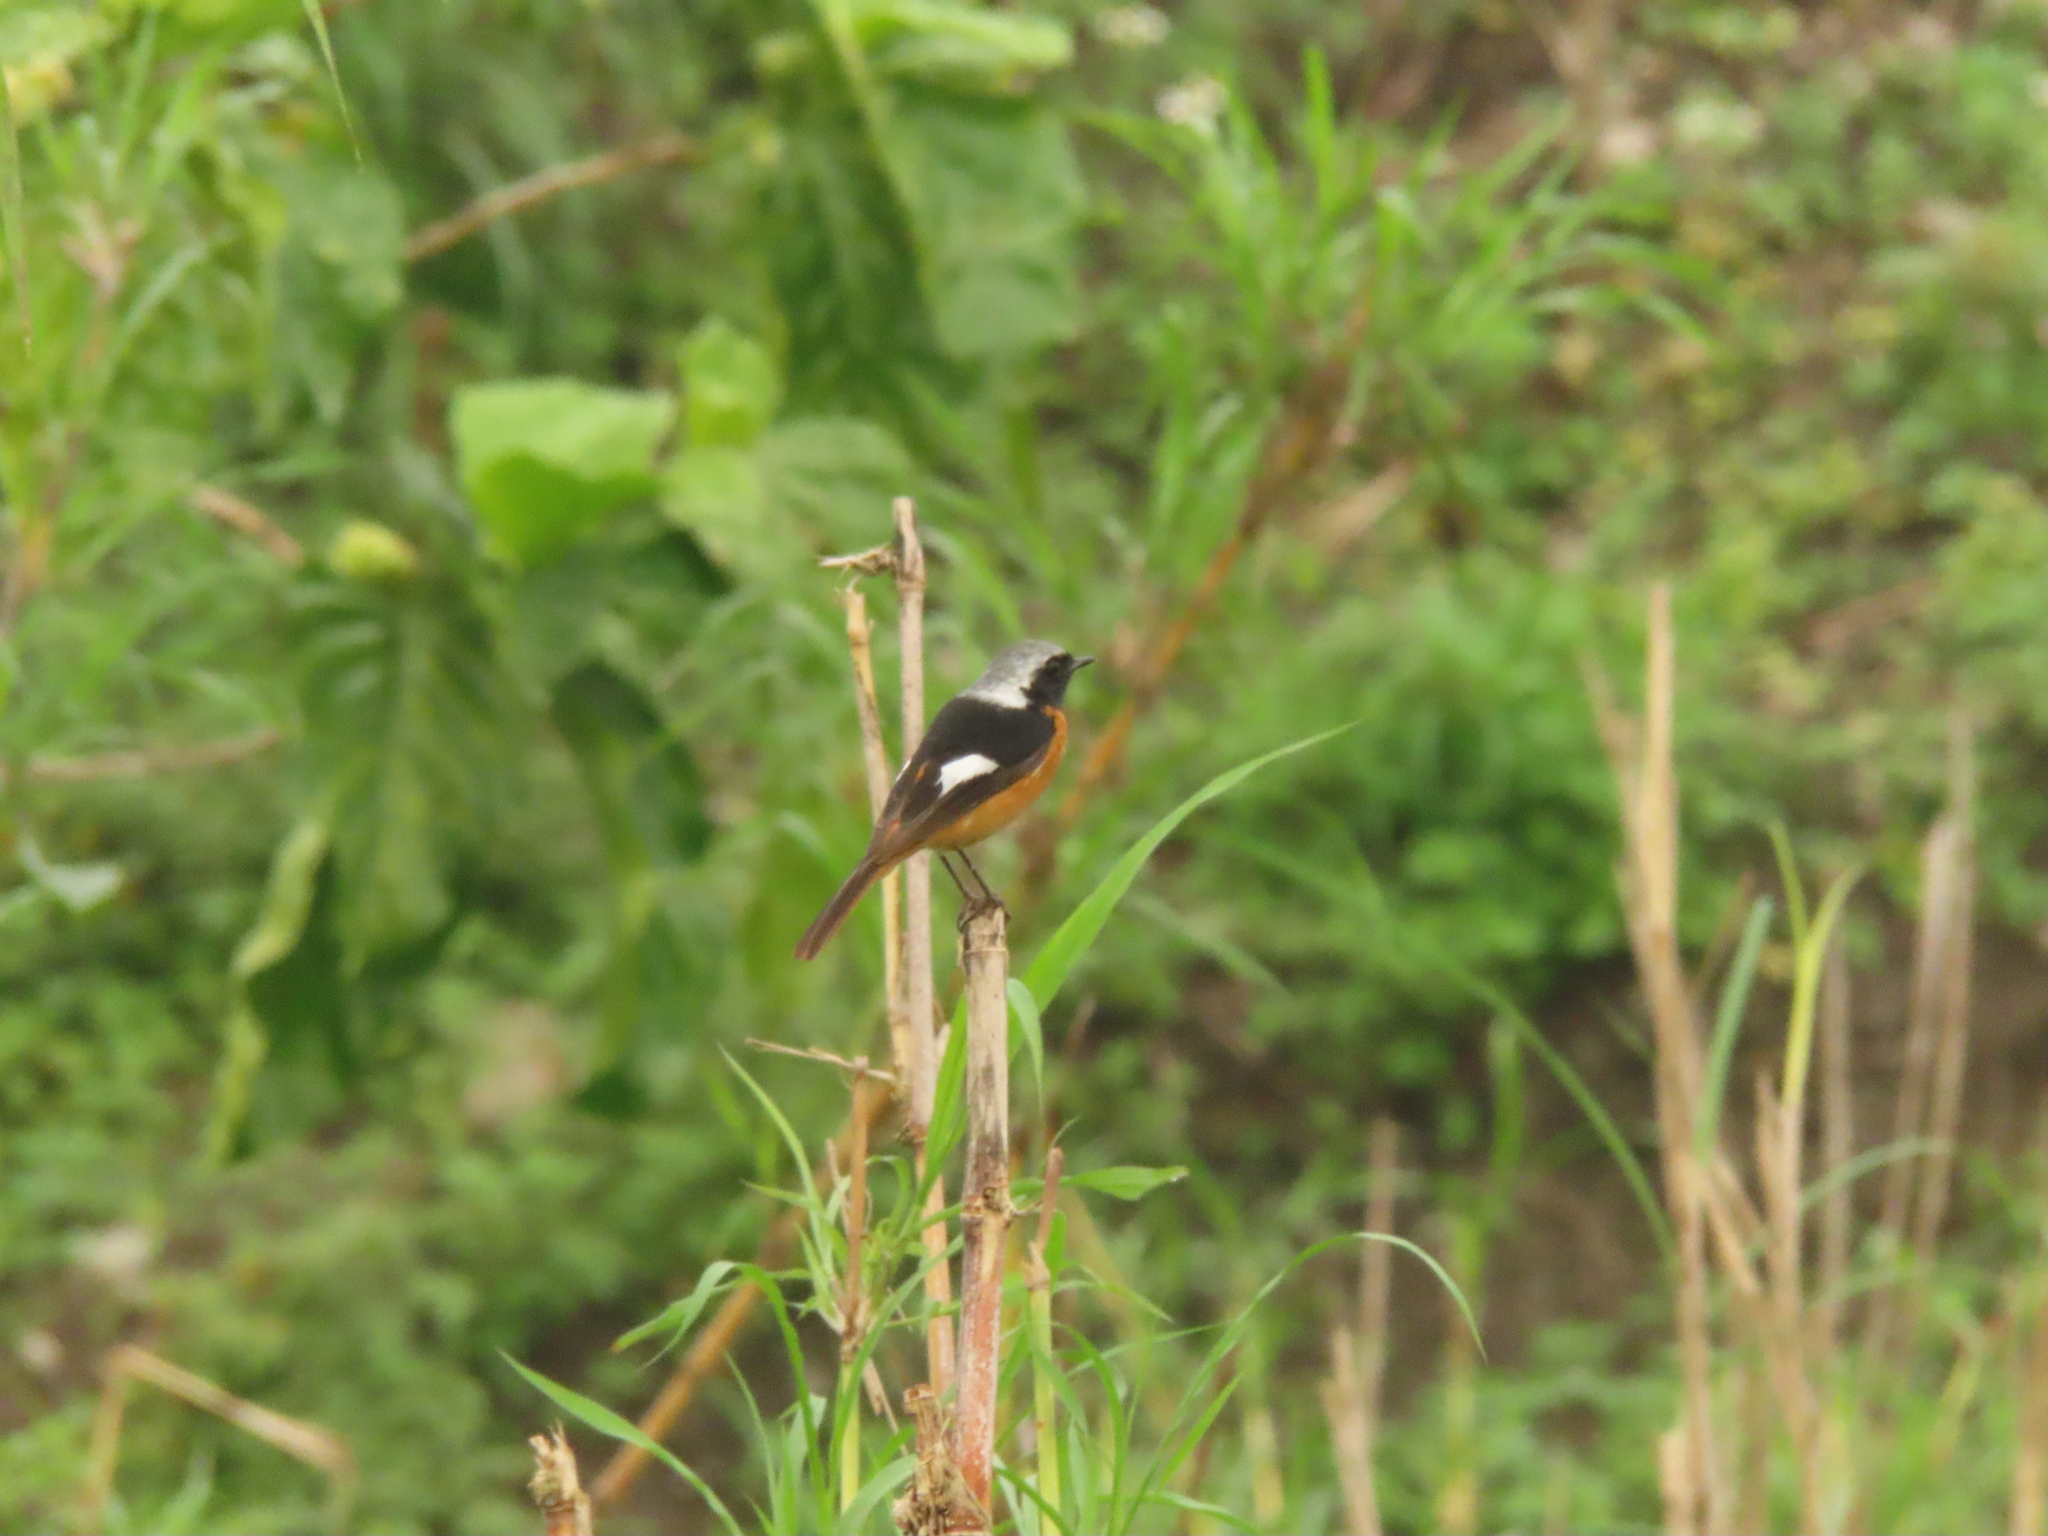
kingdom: Animalia
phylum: Chordata
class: Aves
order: Passeriformes
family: Muscicapidae
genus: Phoenicurus
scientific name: Phoenicurus auroreus
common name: Daurian redstart
